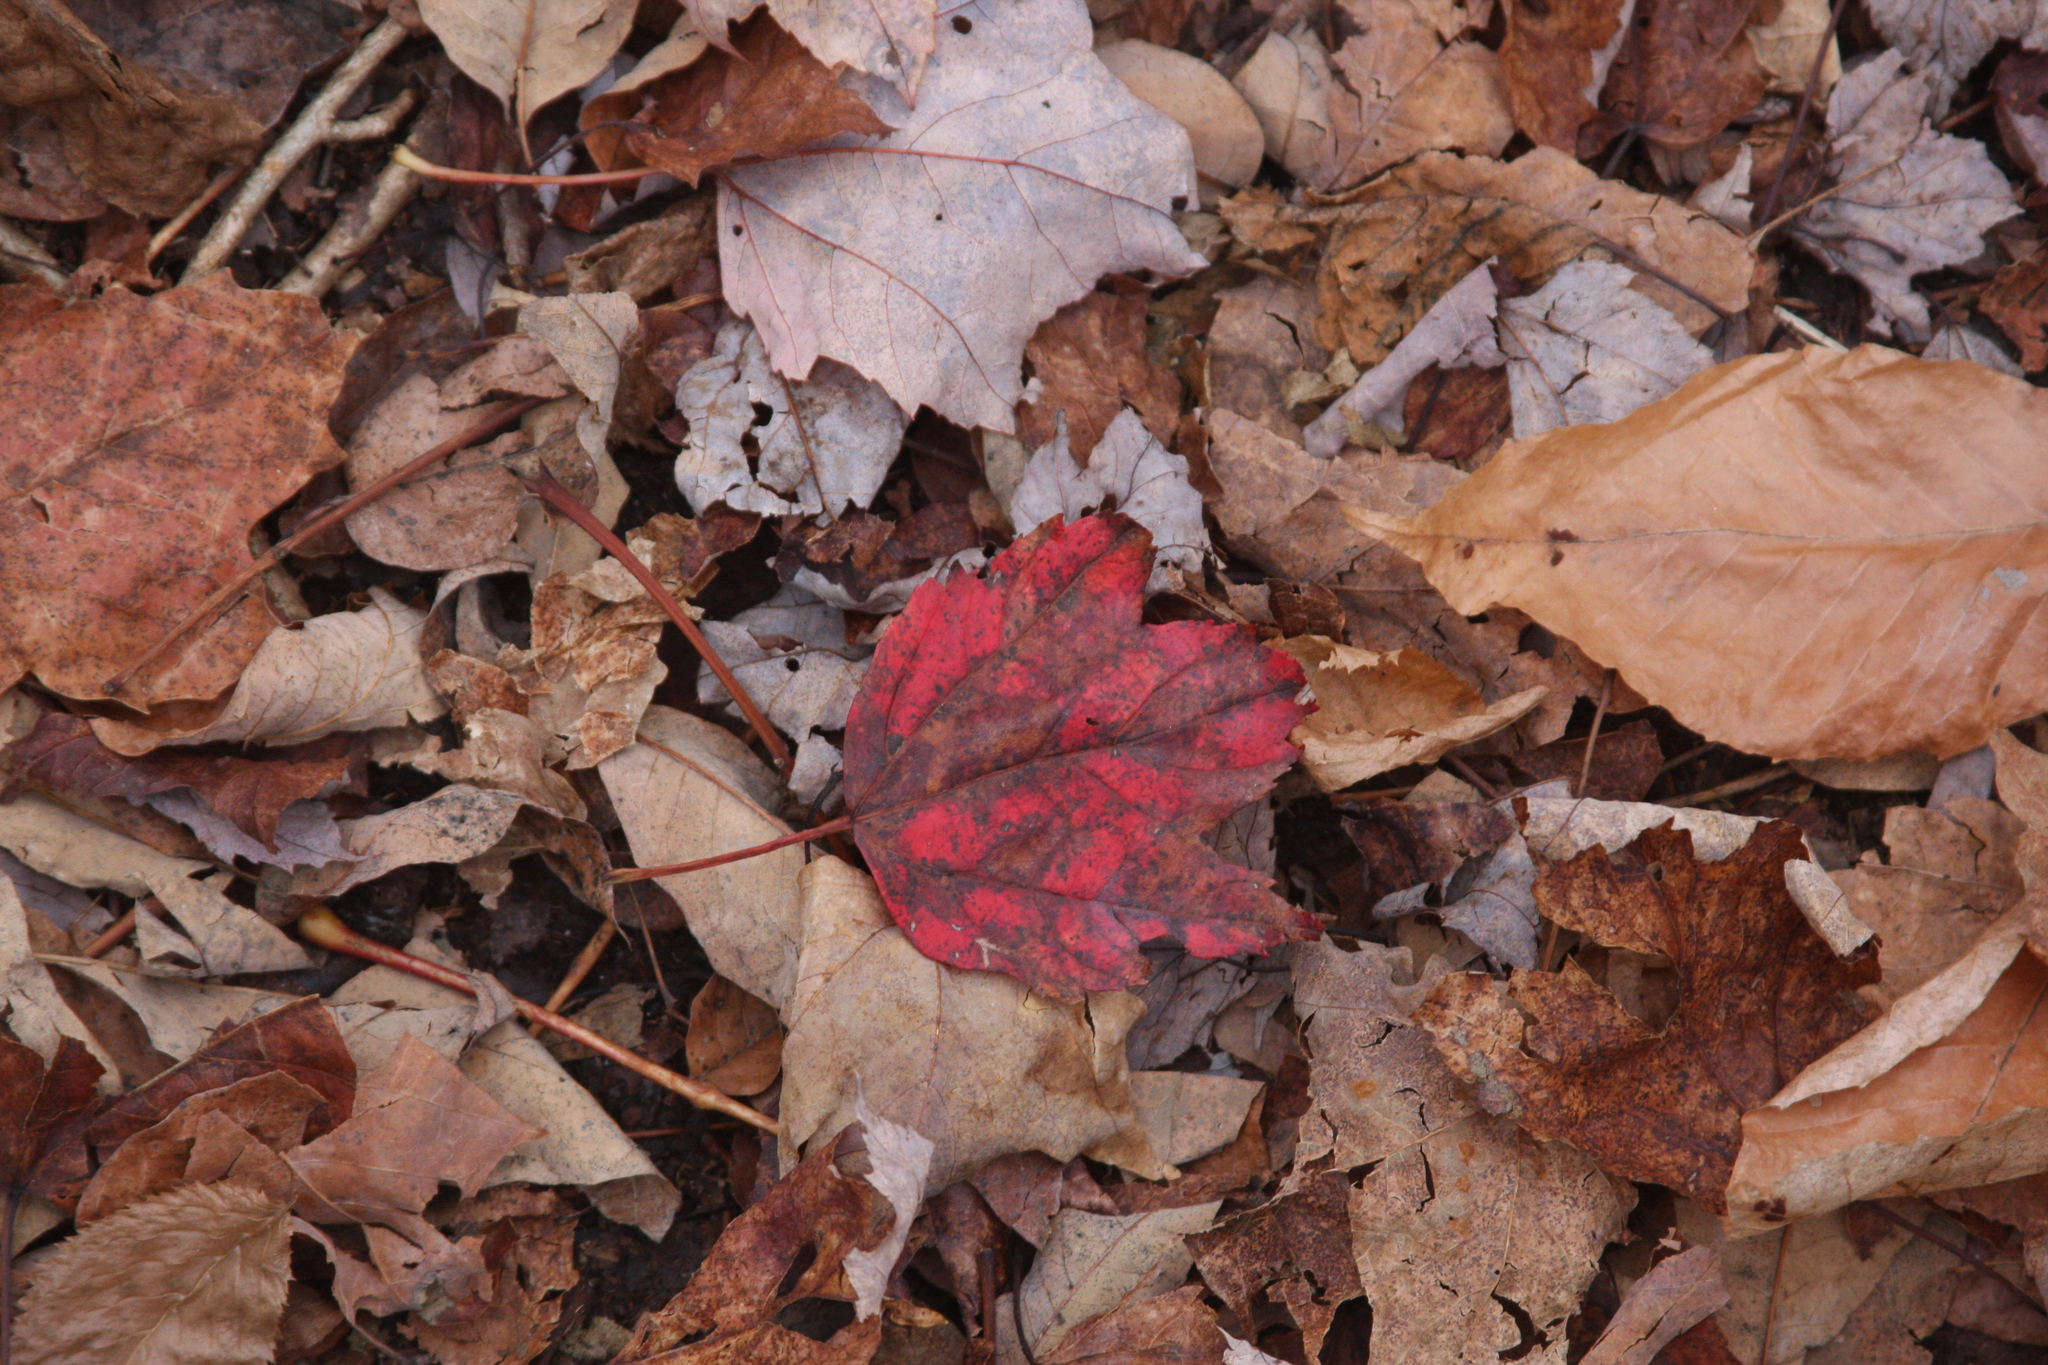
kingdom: Plantae
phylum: Tracheophyta
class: Magnoliopsida
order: Sapindales
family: Sapindaceae
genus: Acer
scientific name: Acer rubrum
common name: Red maple
